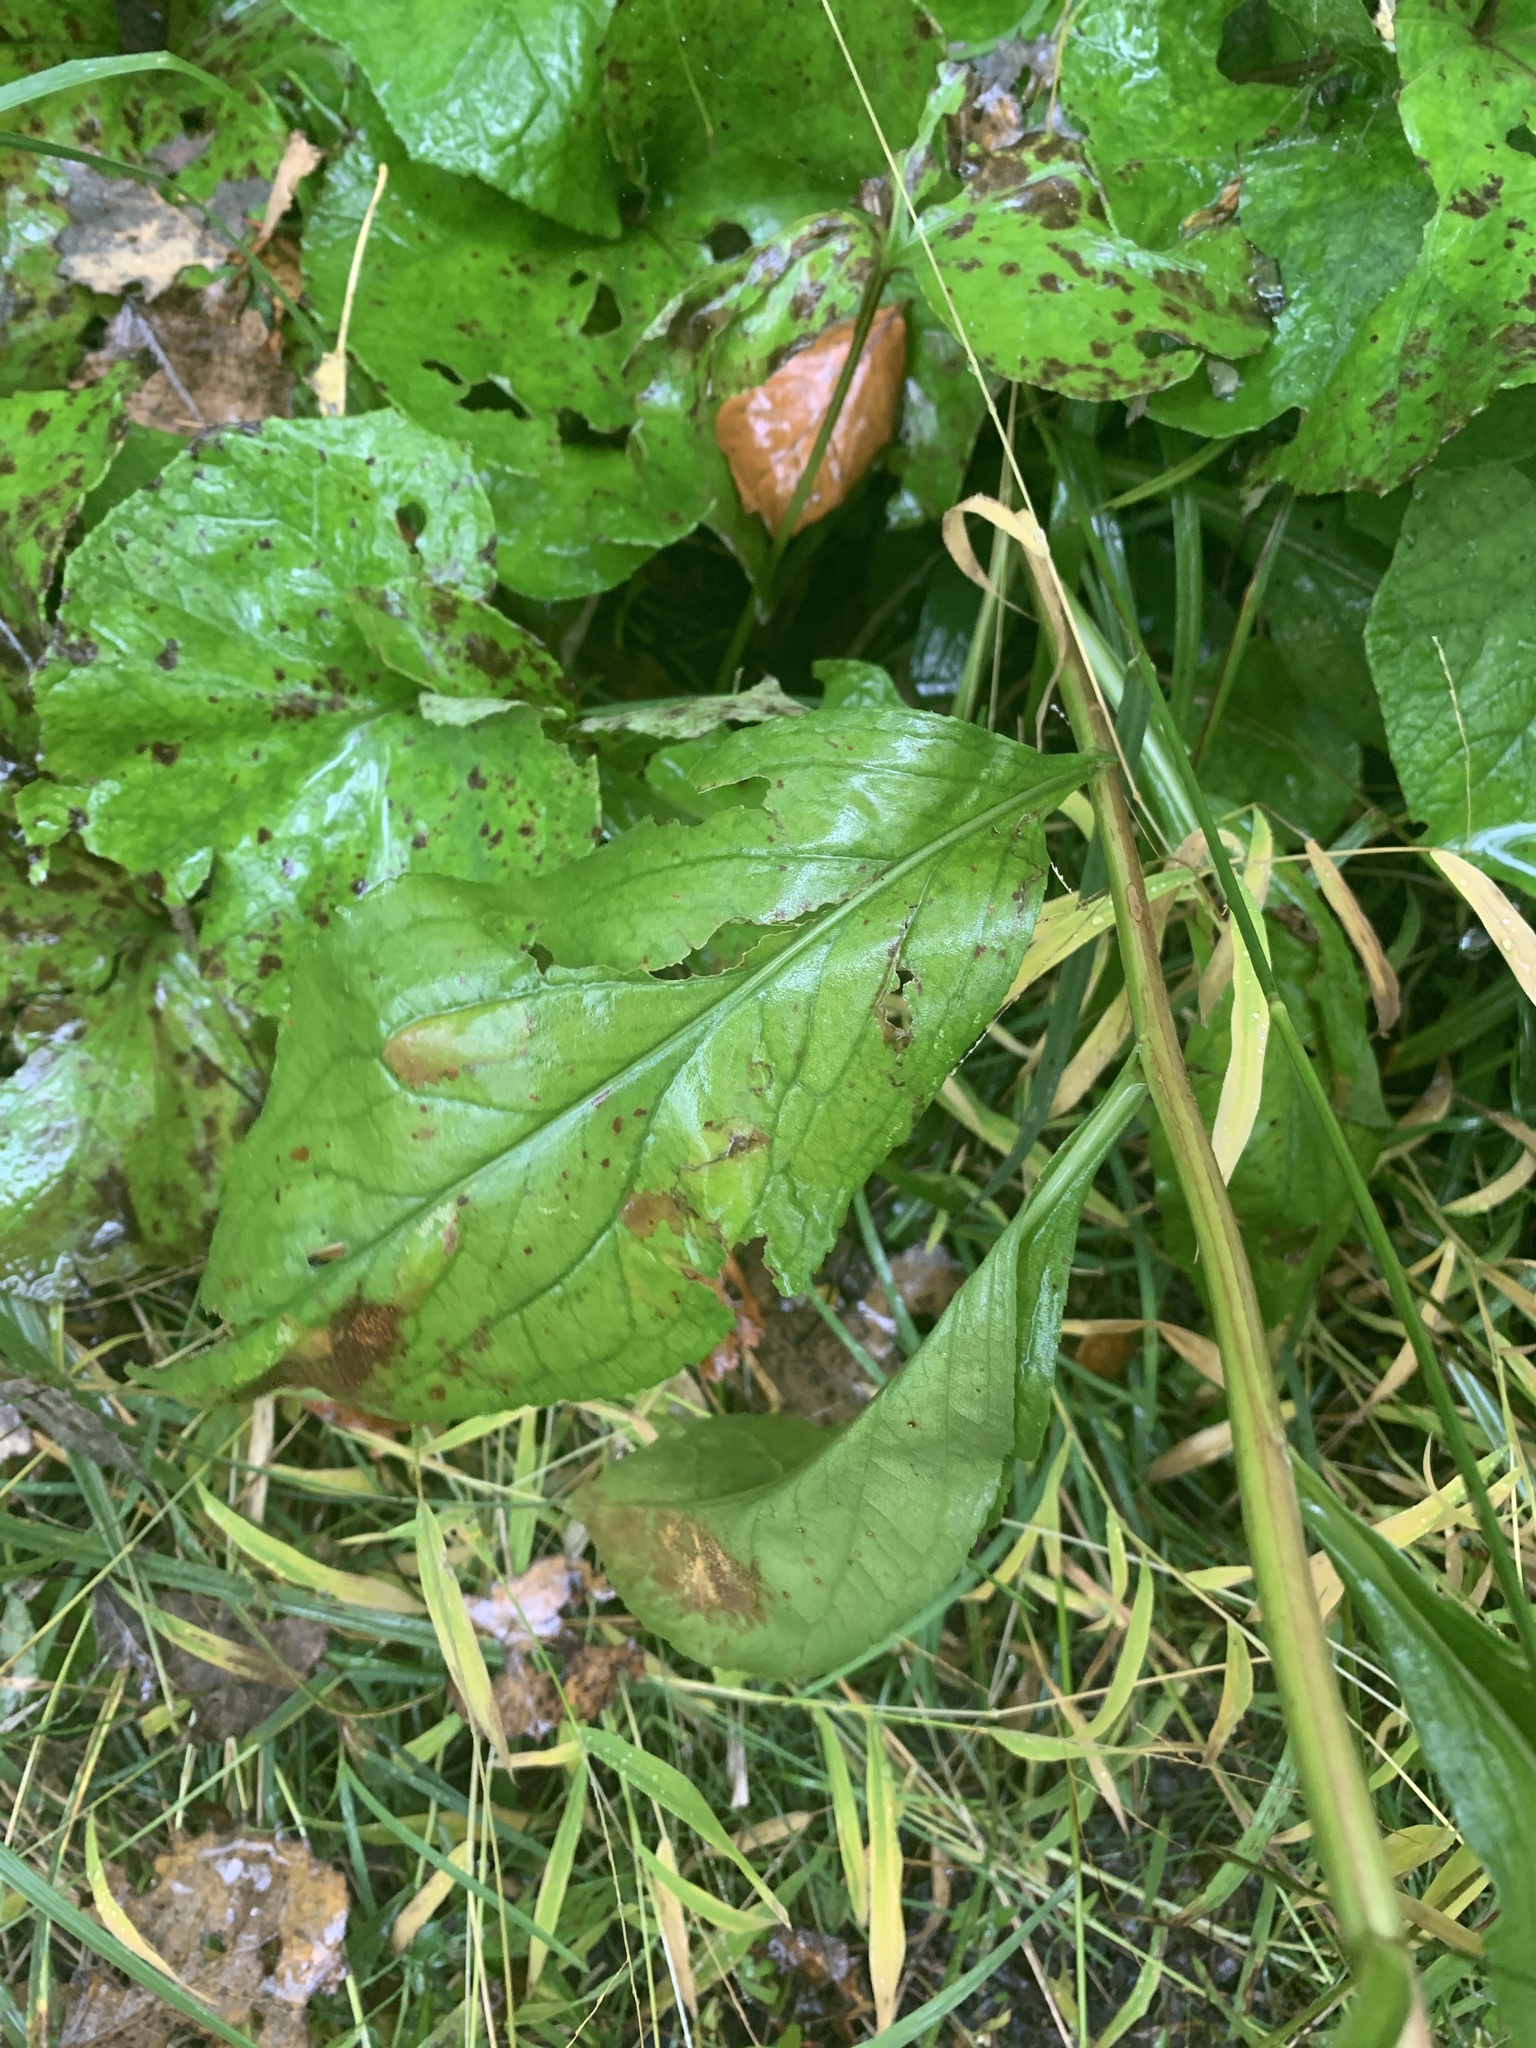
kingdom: Plantae
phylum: Tracheophyta
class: Magnoliopsida
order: Asterales
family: Asteraceae
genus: Solidago
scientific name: Solidago patula
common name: Rough-leaf goldenrod
